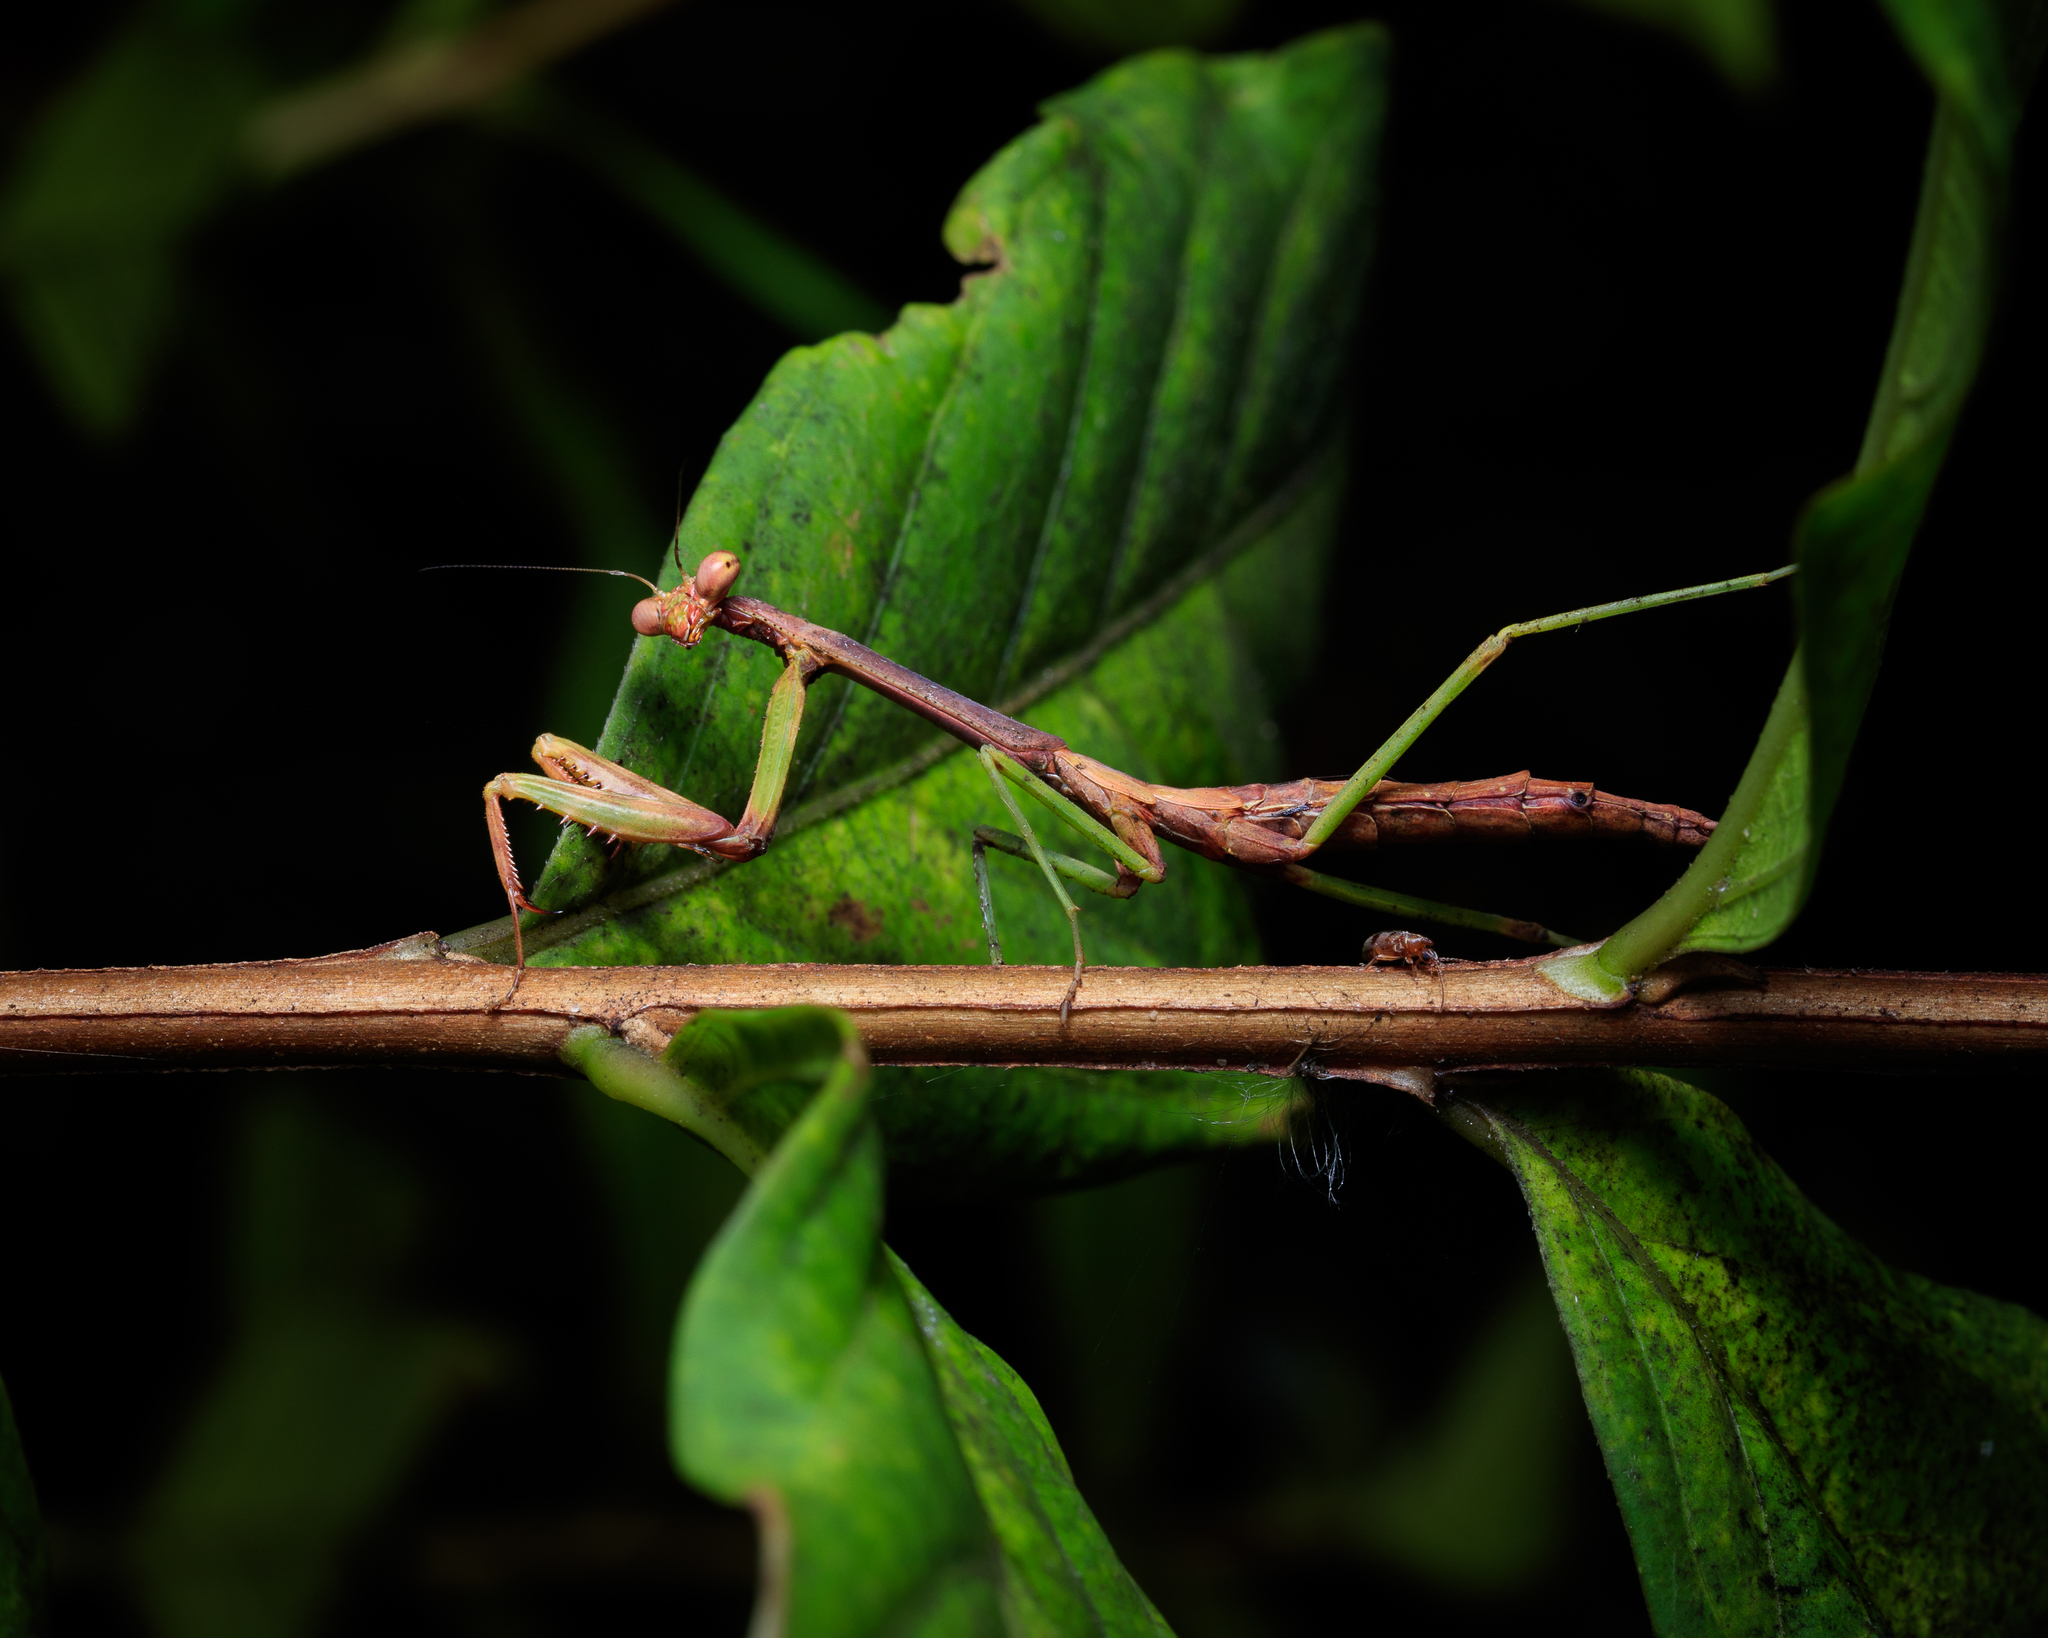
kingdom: Animalia
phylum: Arthropoda
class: Insecta
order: Mantodea
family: Mantidae
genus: Stagmomantis
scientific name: Stagmomantis carolina
